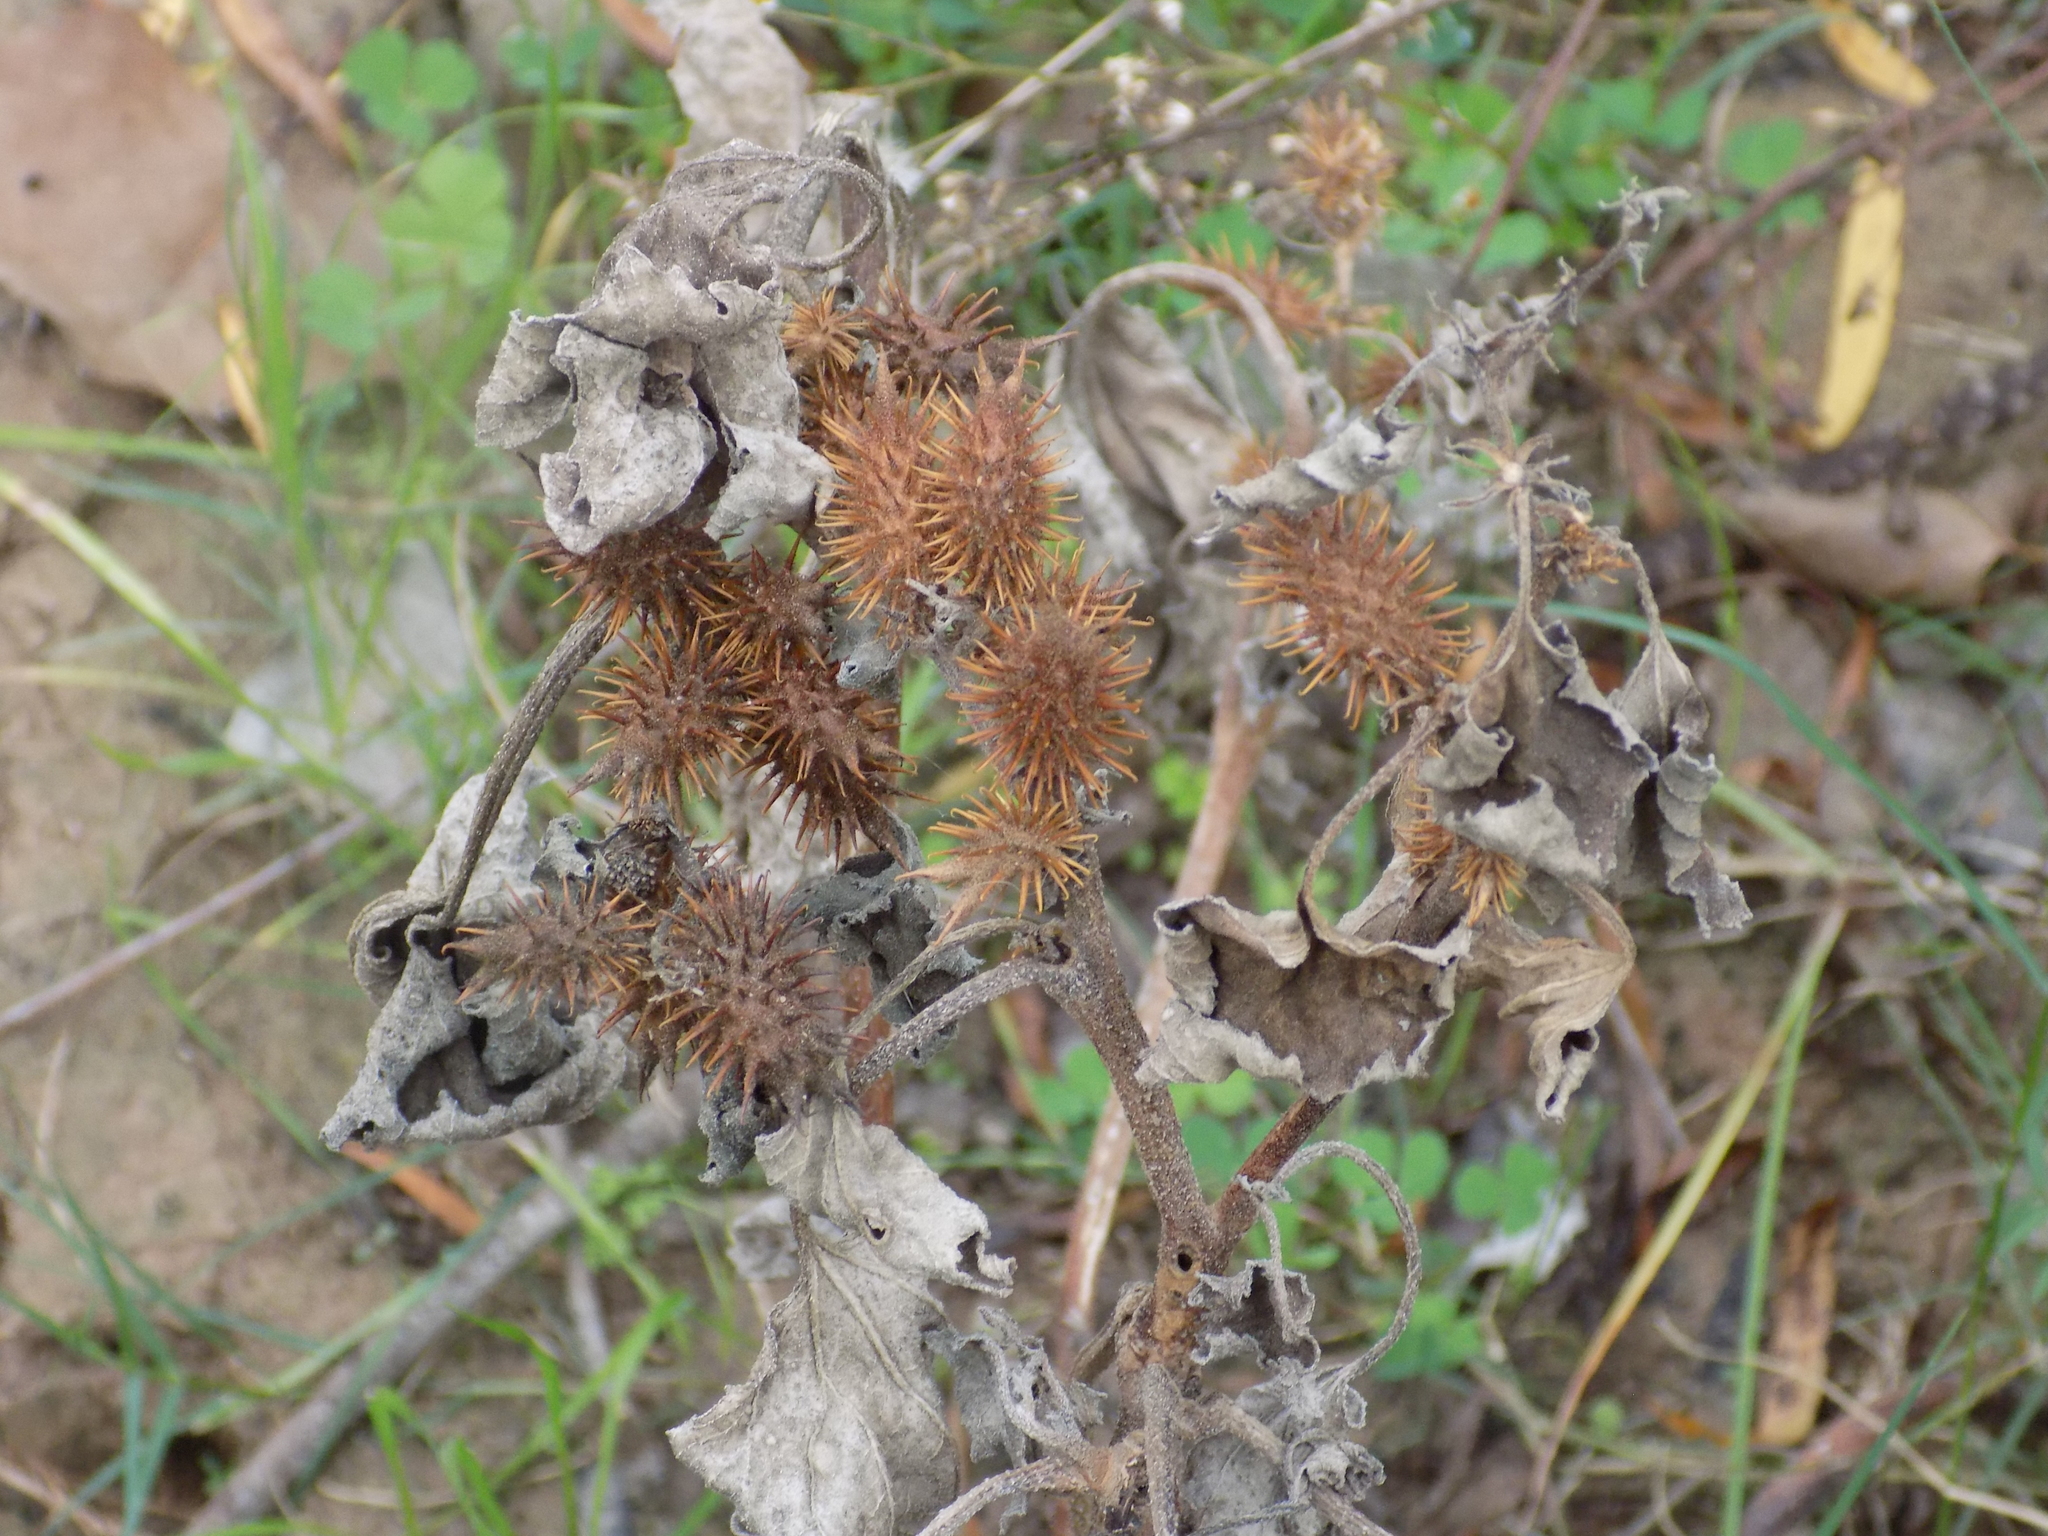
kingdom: Plantae
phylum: Tracheophyta
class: Magnoliopsida
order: Asterales
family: Asteraceae
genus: Xanthium
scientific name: Xanthium strumarium
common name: Rough cocklebur
